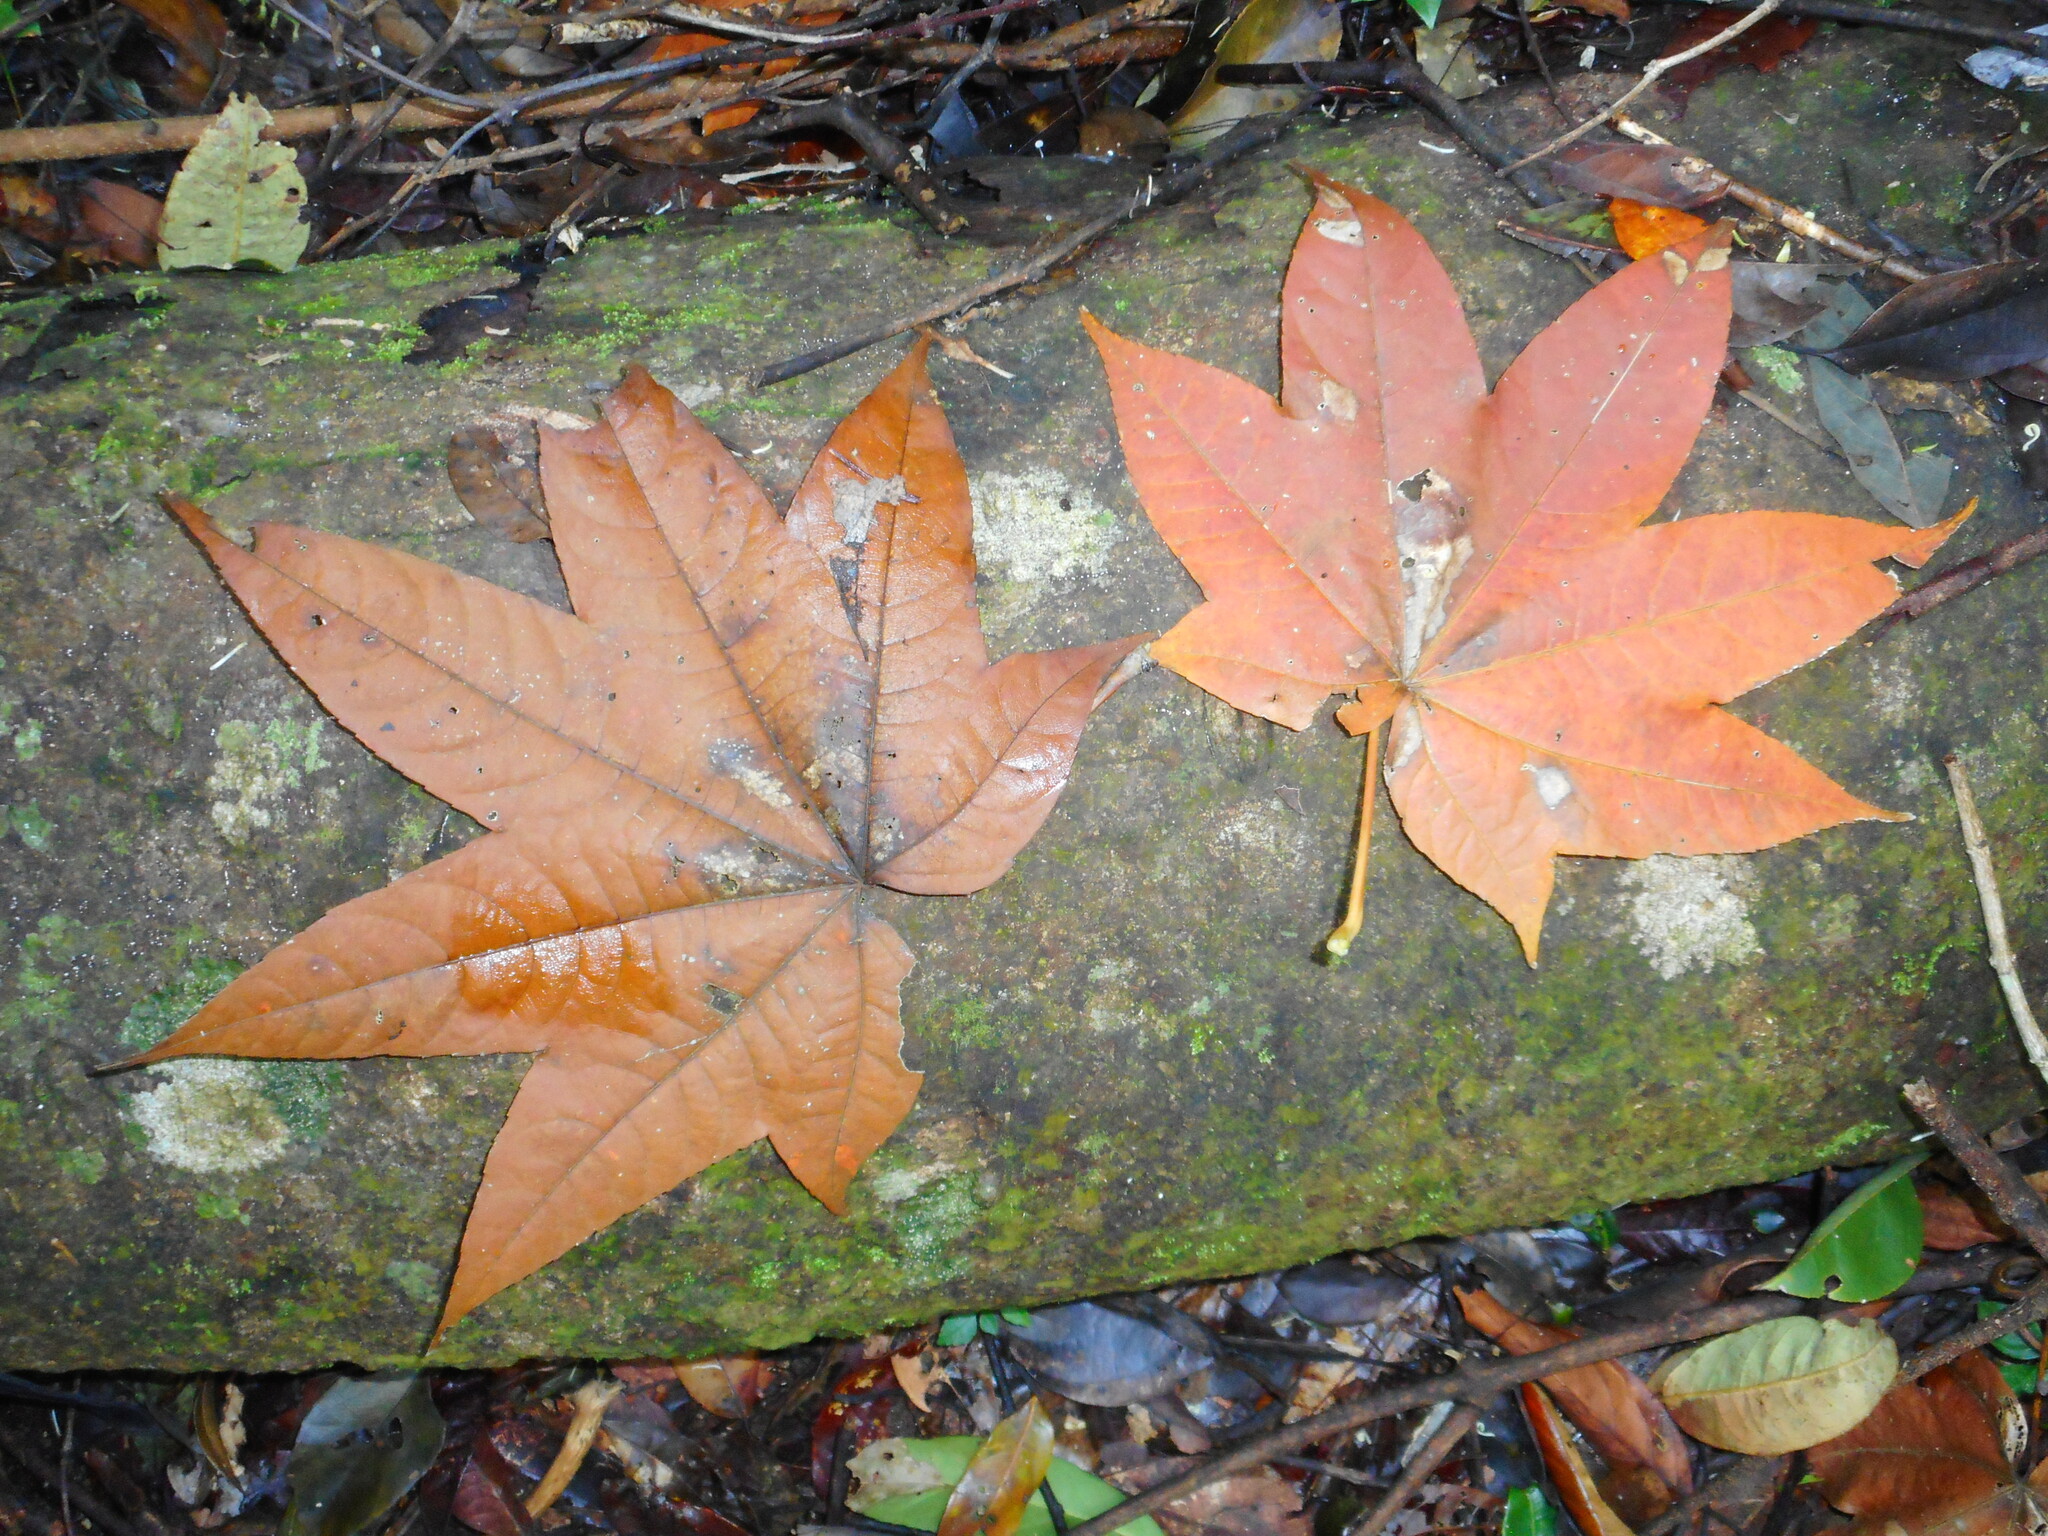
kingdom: Plantae
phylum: Tracheophyta
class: Magnoliopsida
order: Sapindales
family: Sapindaceae
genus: Acer
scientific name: Acer campbellii
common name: Campbell's maple
